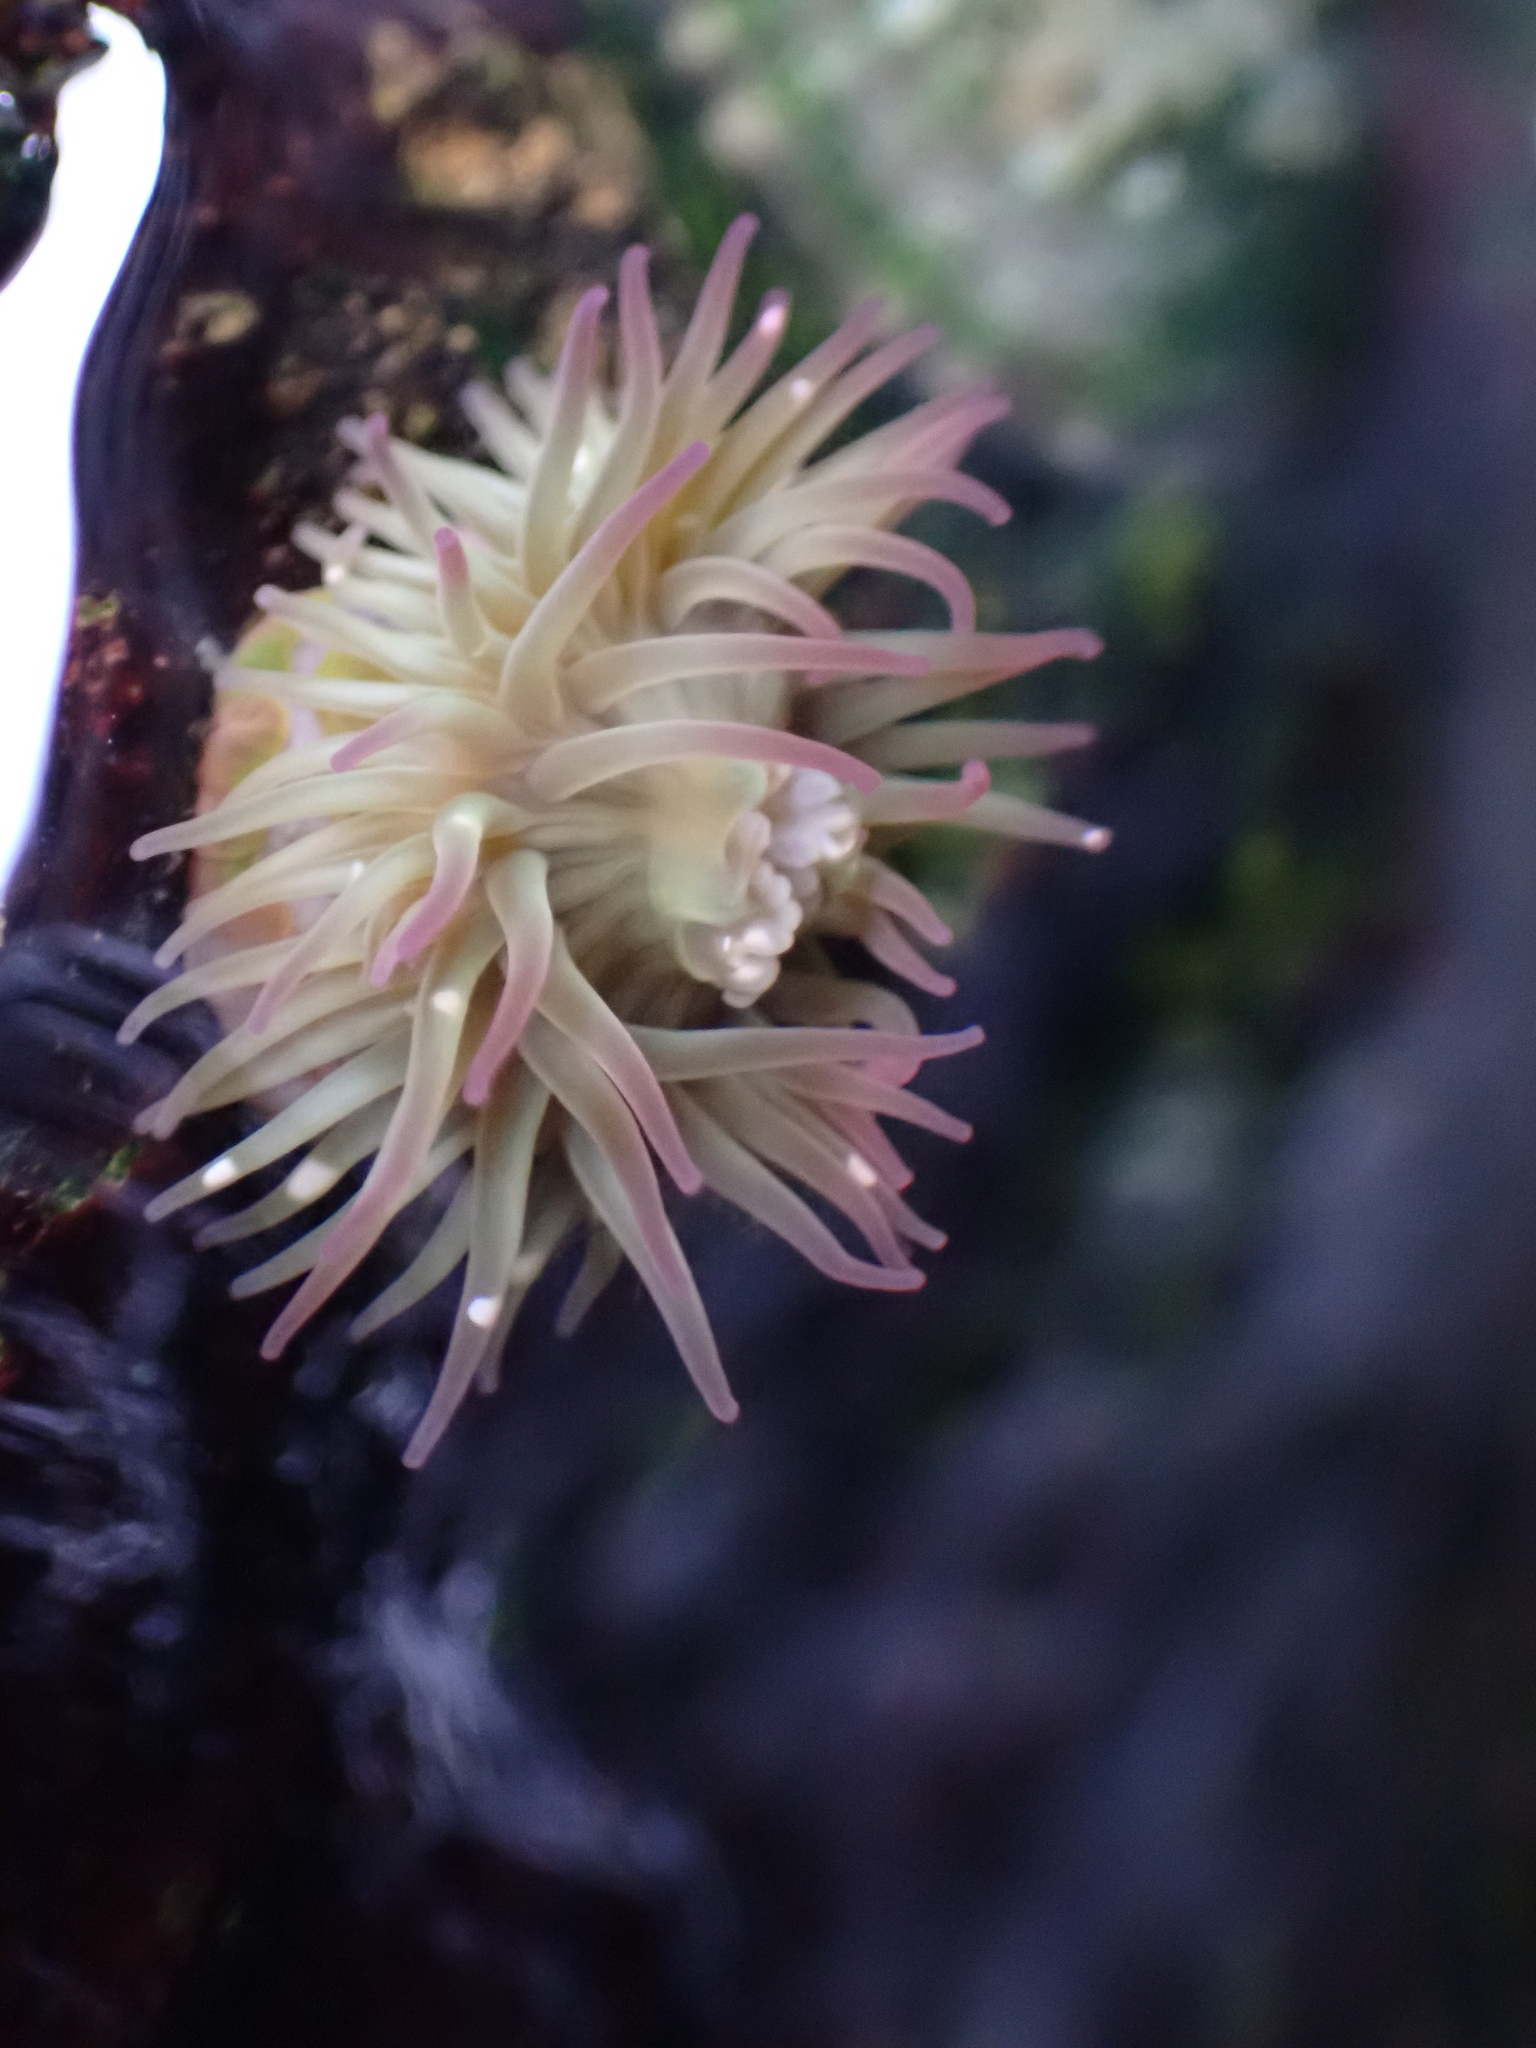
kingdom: Animalia
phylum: Cnidaria
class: Anthozoa
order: Actiniaria
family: Actiniidae
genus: Anthopleura
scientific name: Anthopleura elegantissima
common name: Clonal anemone
